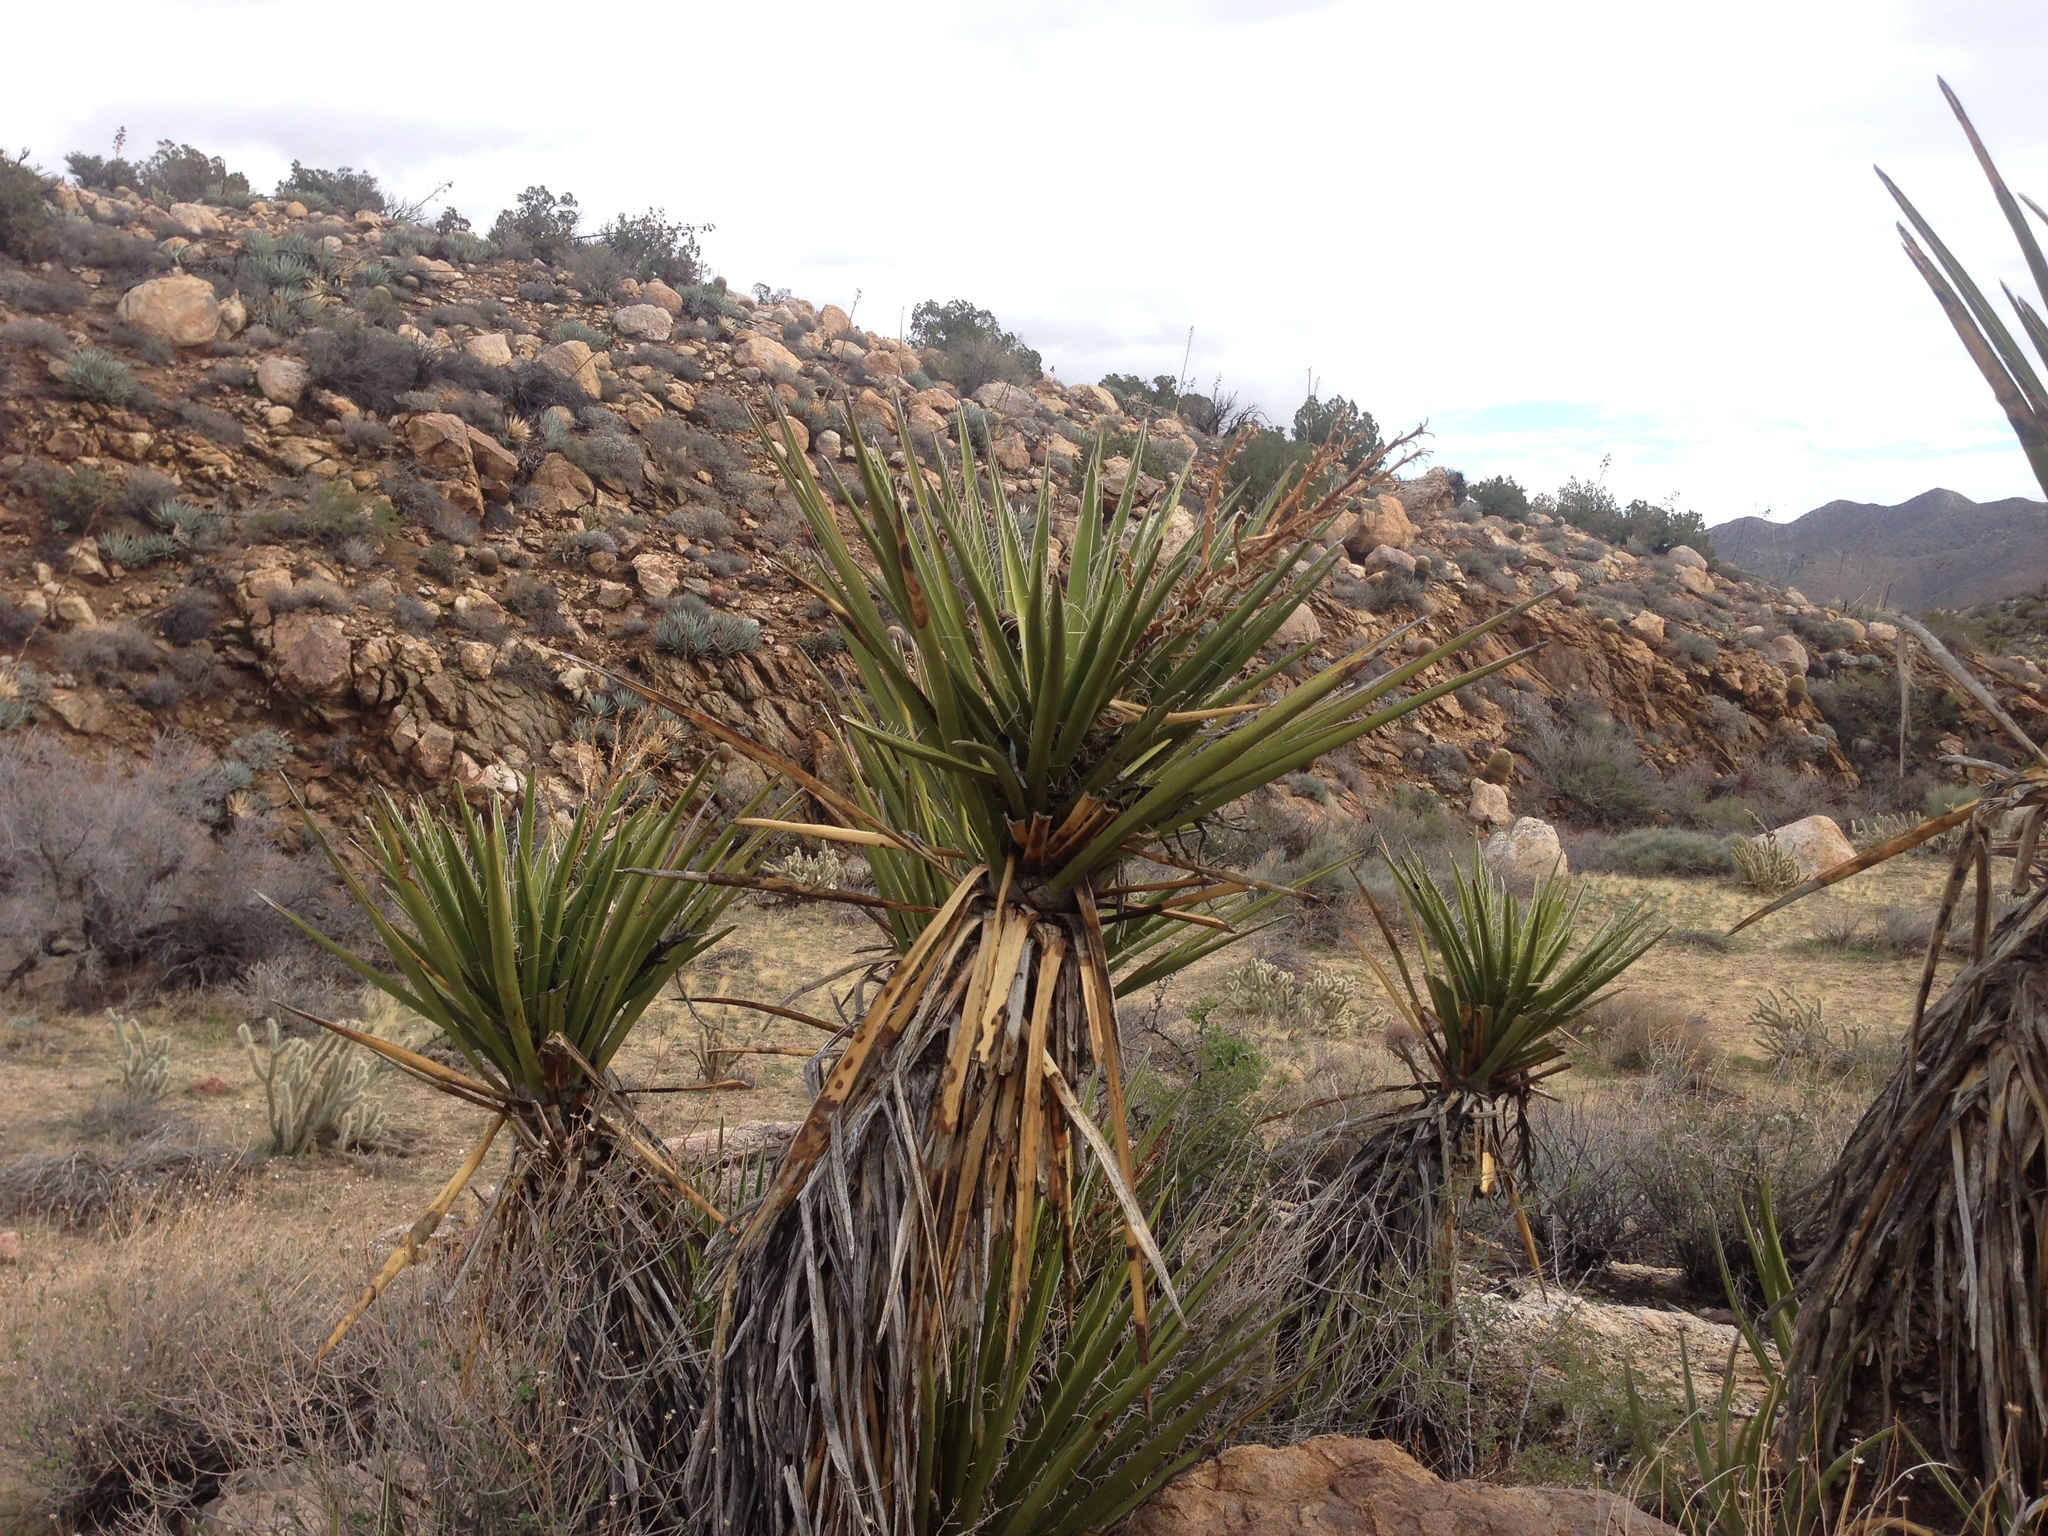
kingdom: Plantae
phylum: Tracheophyta
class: Liliopsida
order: Asparagales
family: Asparagaceae
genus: Yucca
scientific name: Yucca schidigera
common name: Mojave yucca
